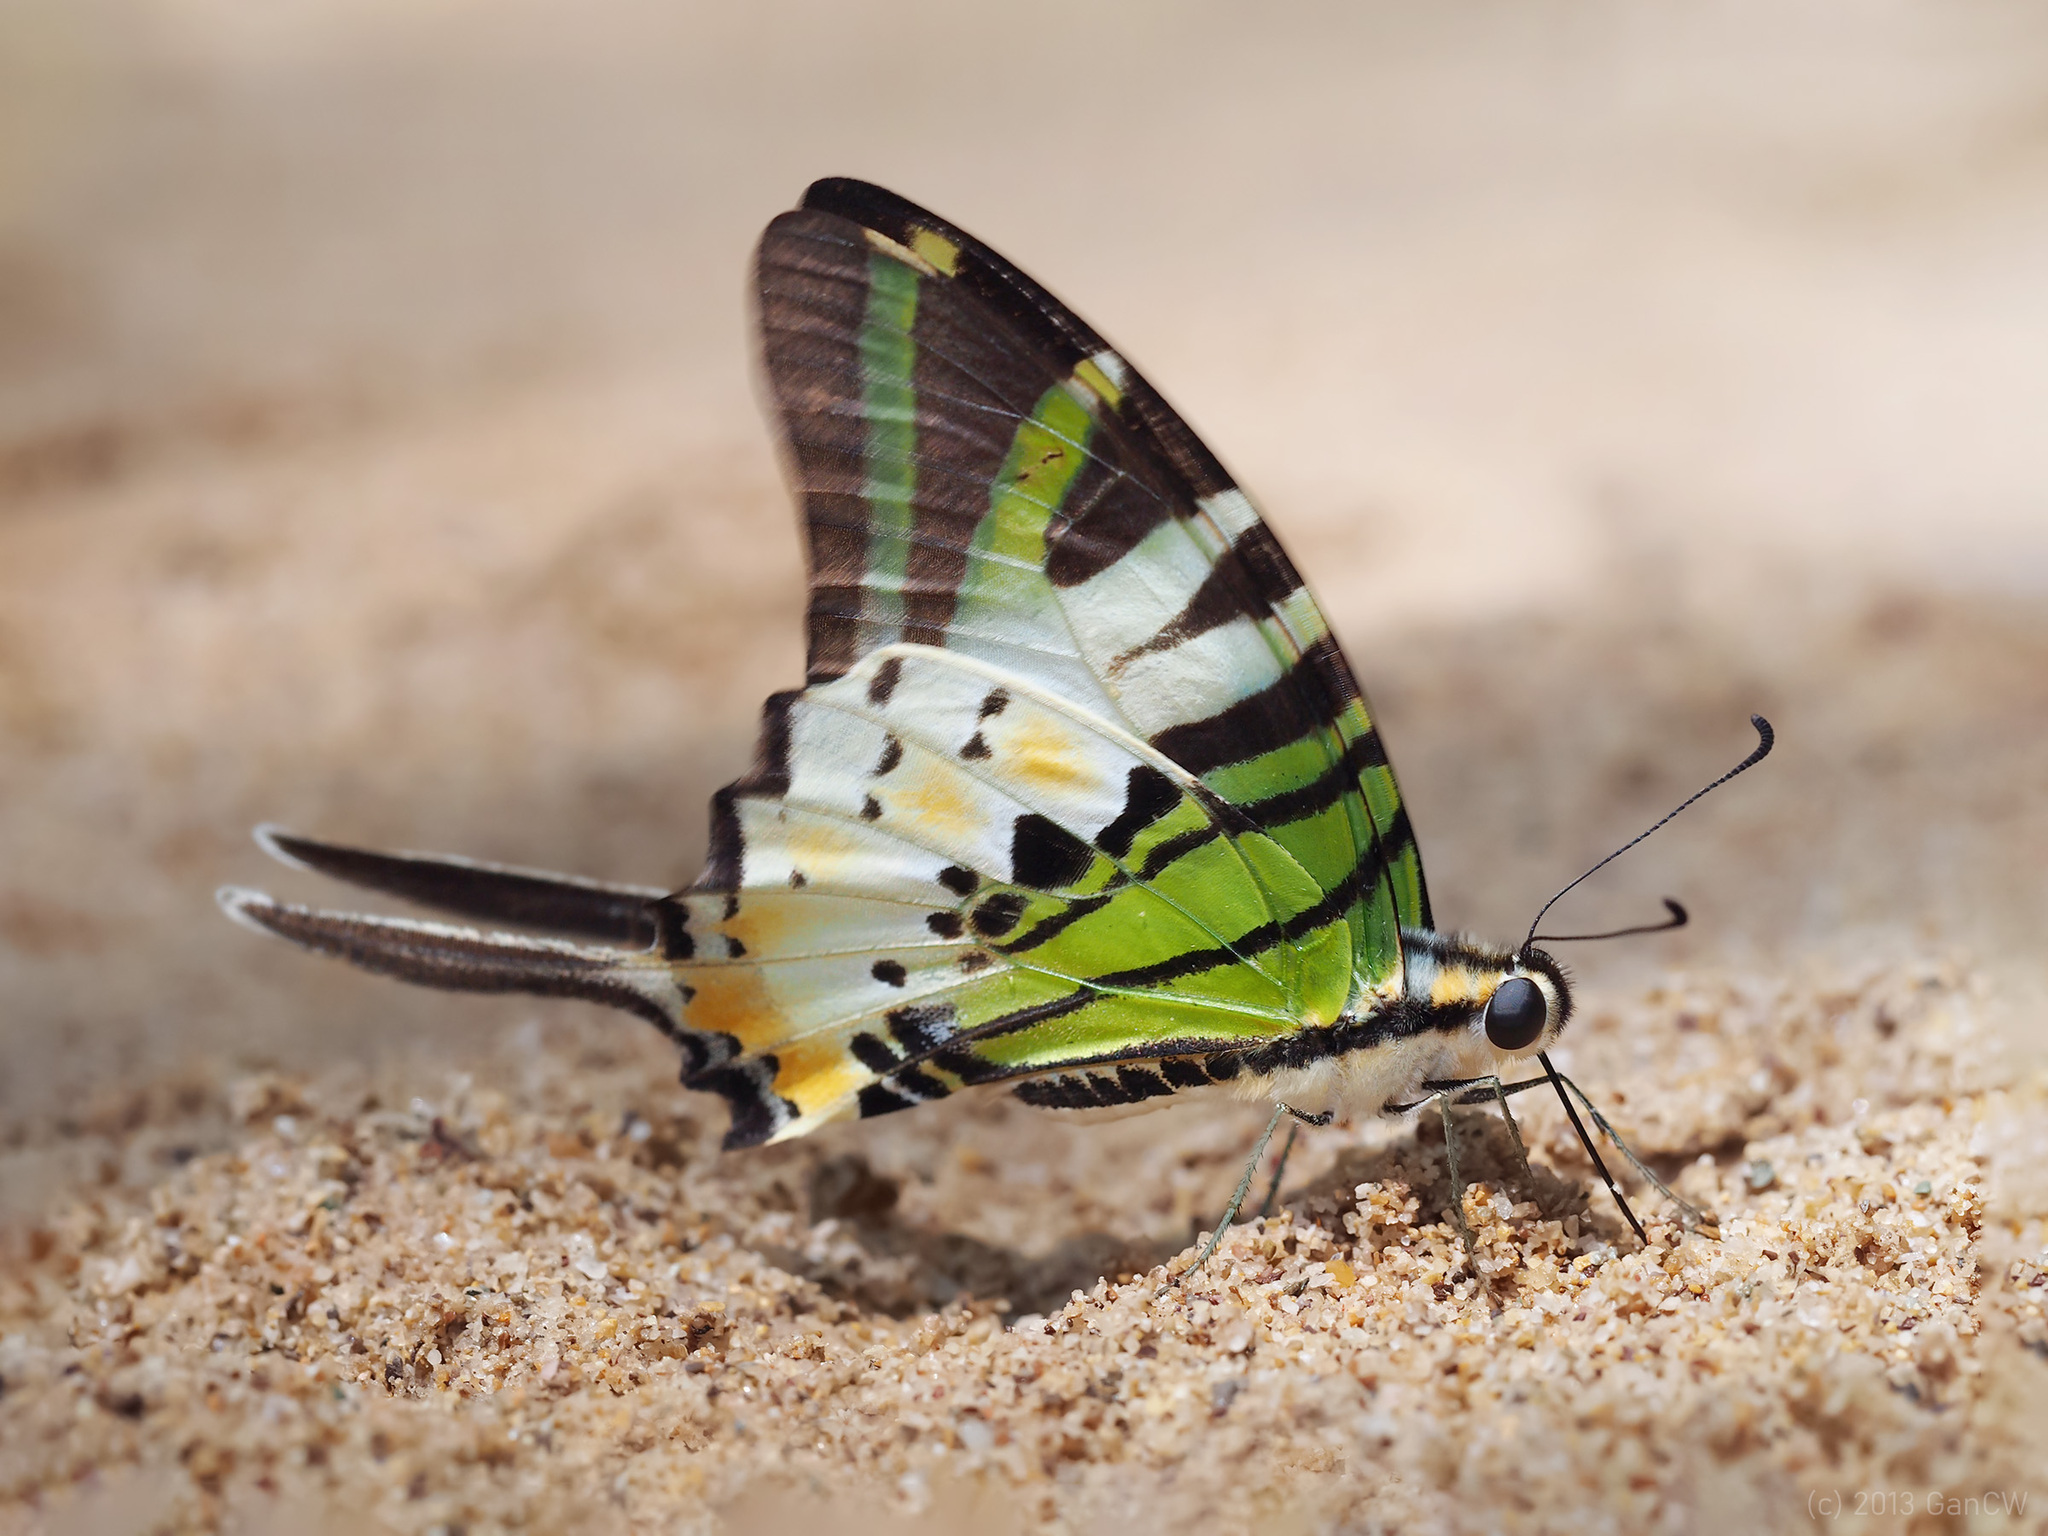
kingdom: Animalia
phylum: Arthropoda
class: Insecta
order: Lepidoptera
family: Papilionidae
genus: Graphium
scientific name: Graphium antiphates
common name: Fivebar swordtail
